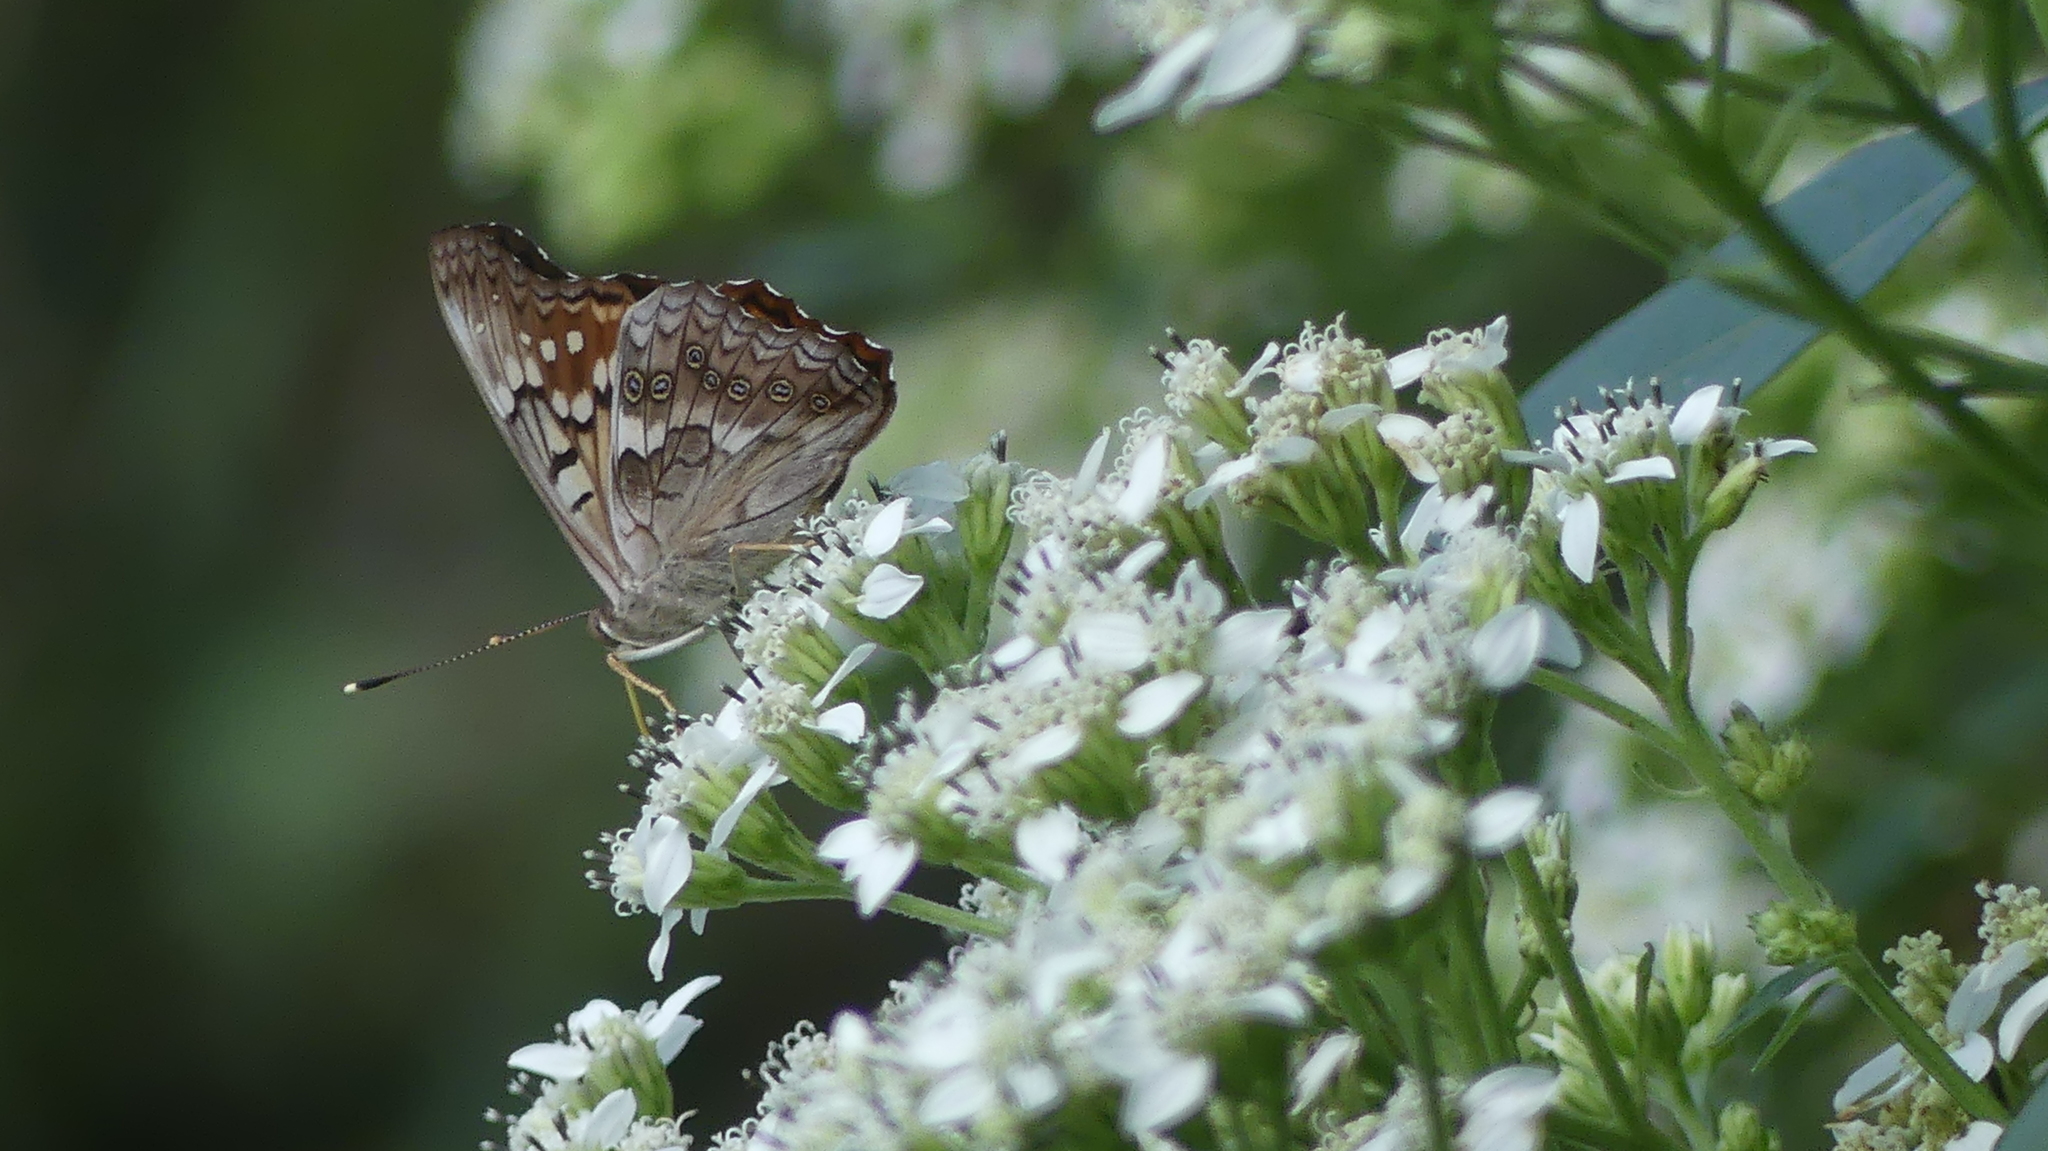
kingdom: Animalia
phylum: Arthropoda
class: Insecta
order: Lepidoptera
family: Nymphalidae
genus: Asterocampa
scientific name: Asterocampa clyton
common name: Tawny emperor
